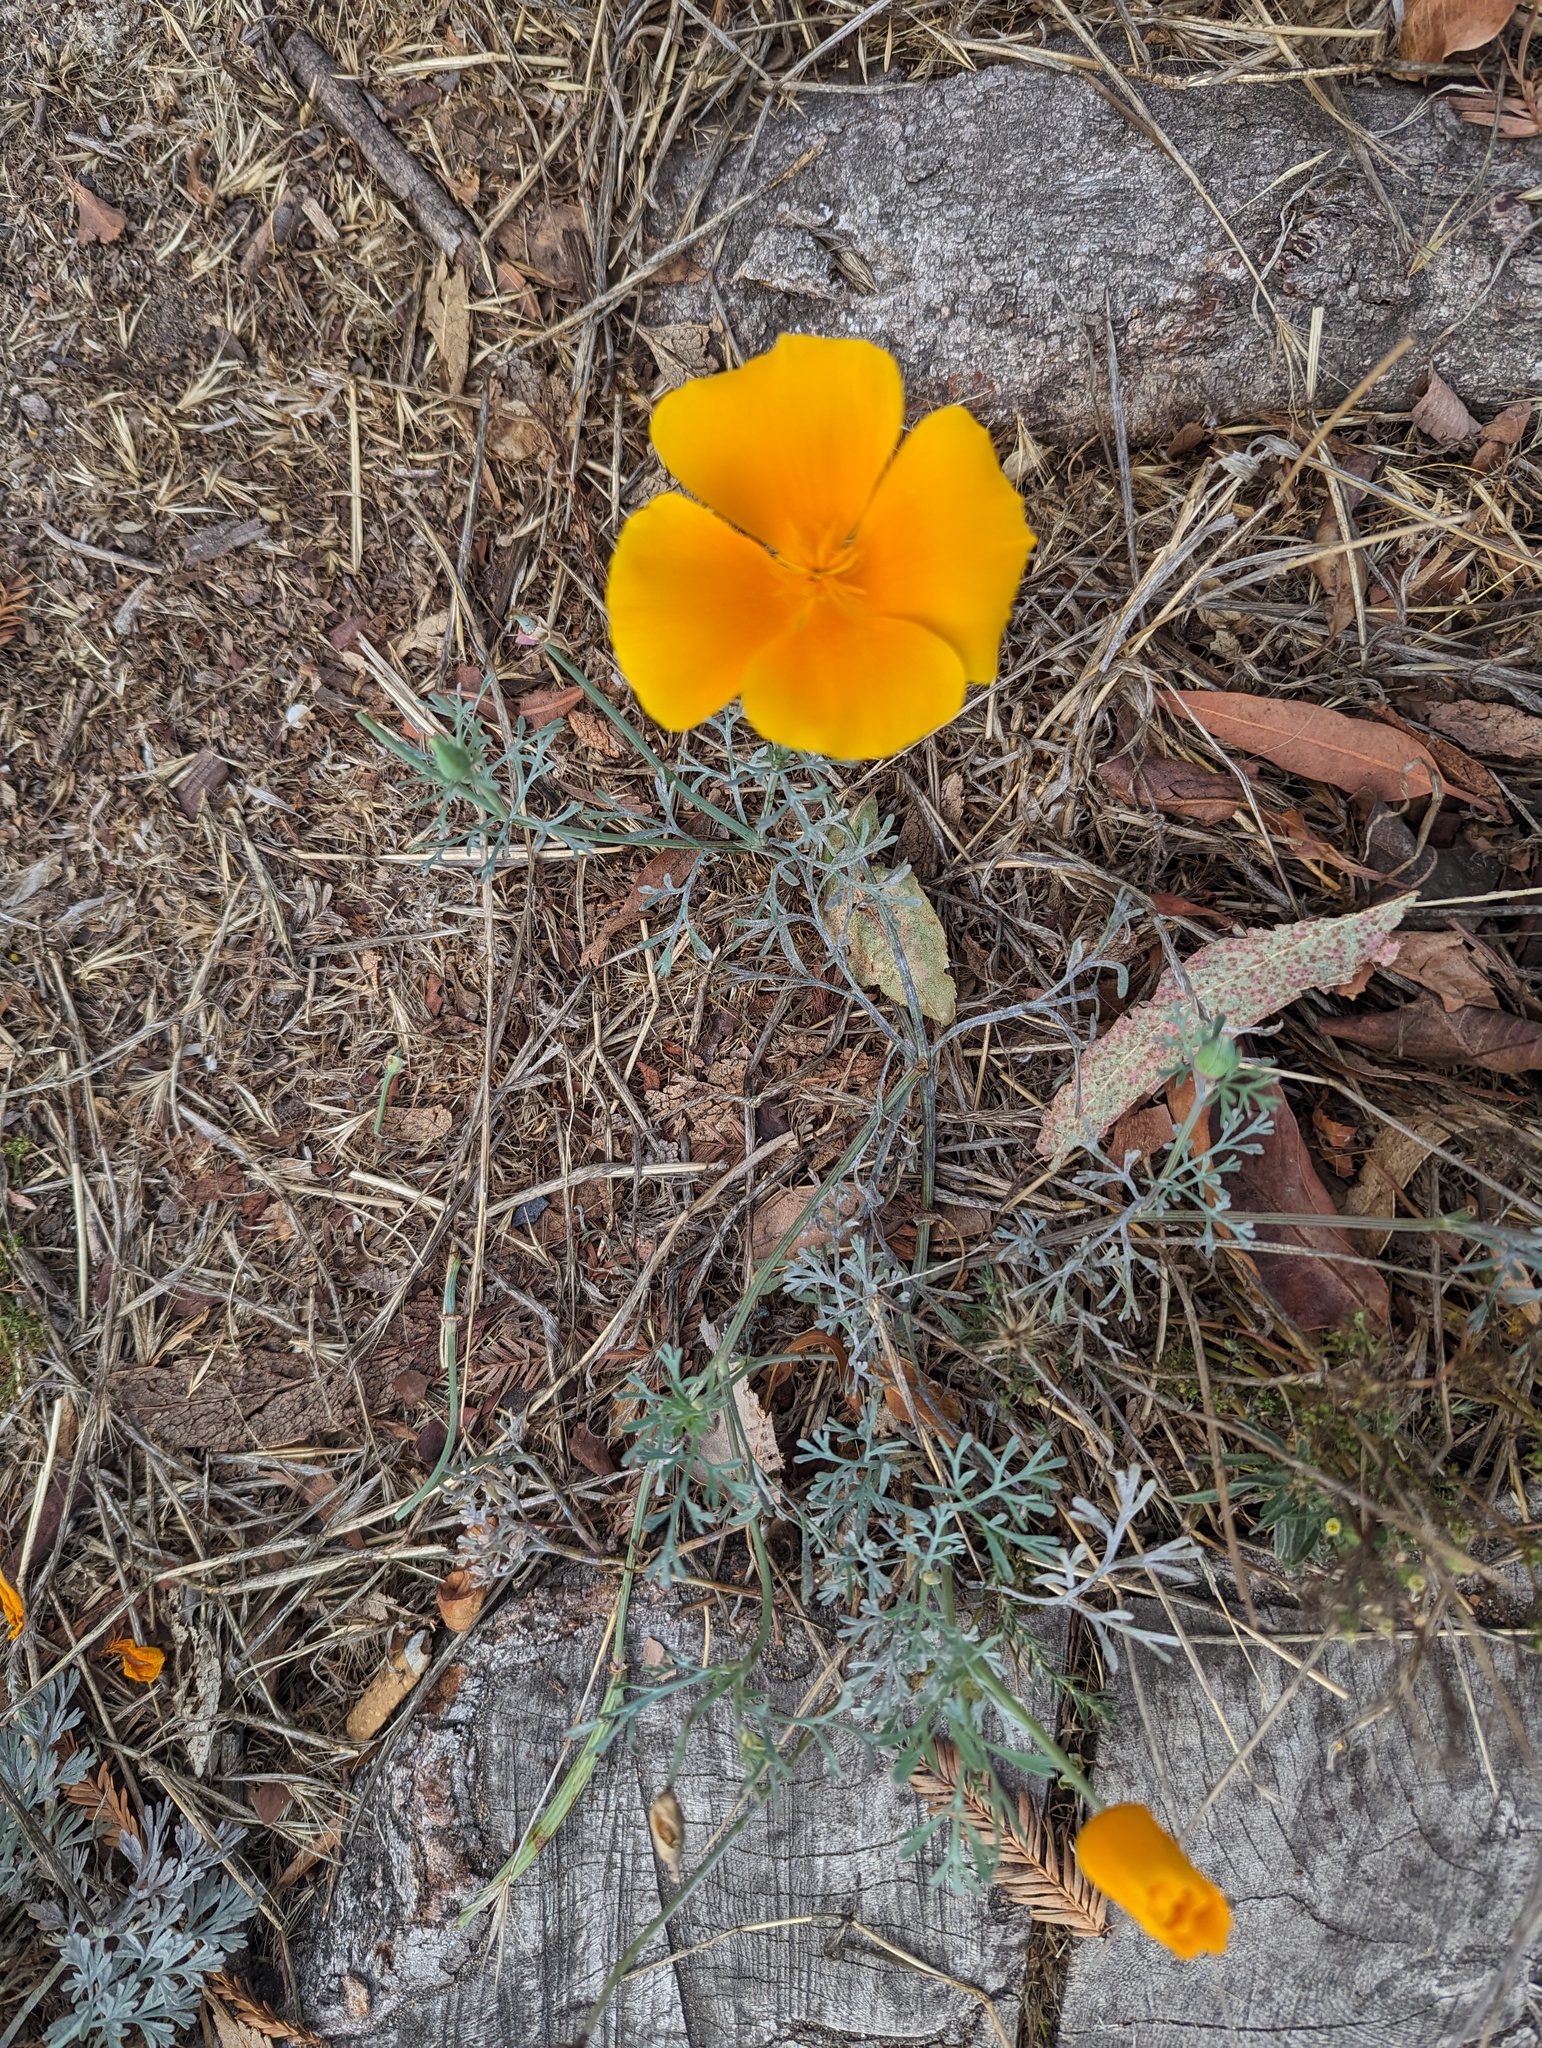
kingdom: Plantae
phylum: Tracheophyta
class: Magnoliopsida
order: Ranunculales
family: Papaveraceae
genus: Eschscholzia
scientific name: Eschscholzia californica
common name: California poppy
